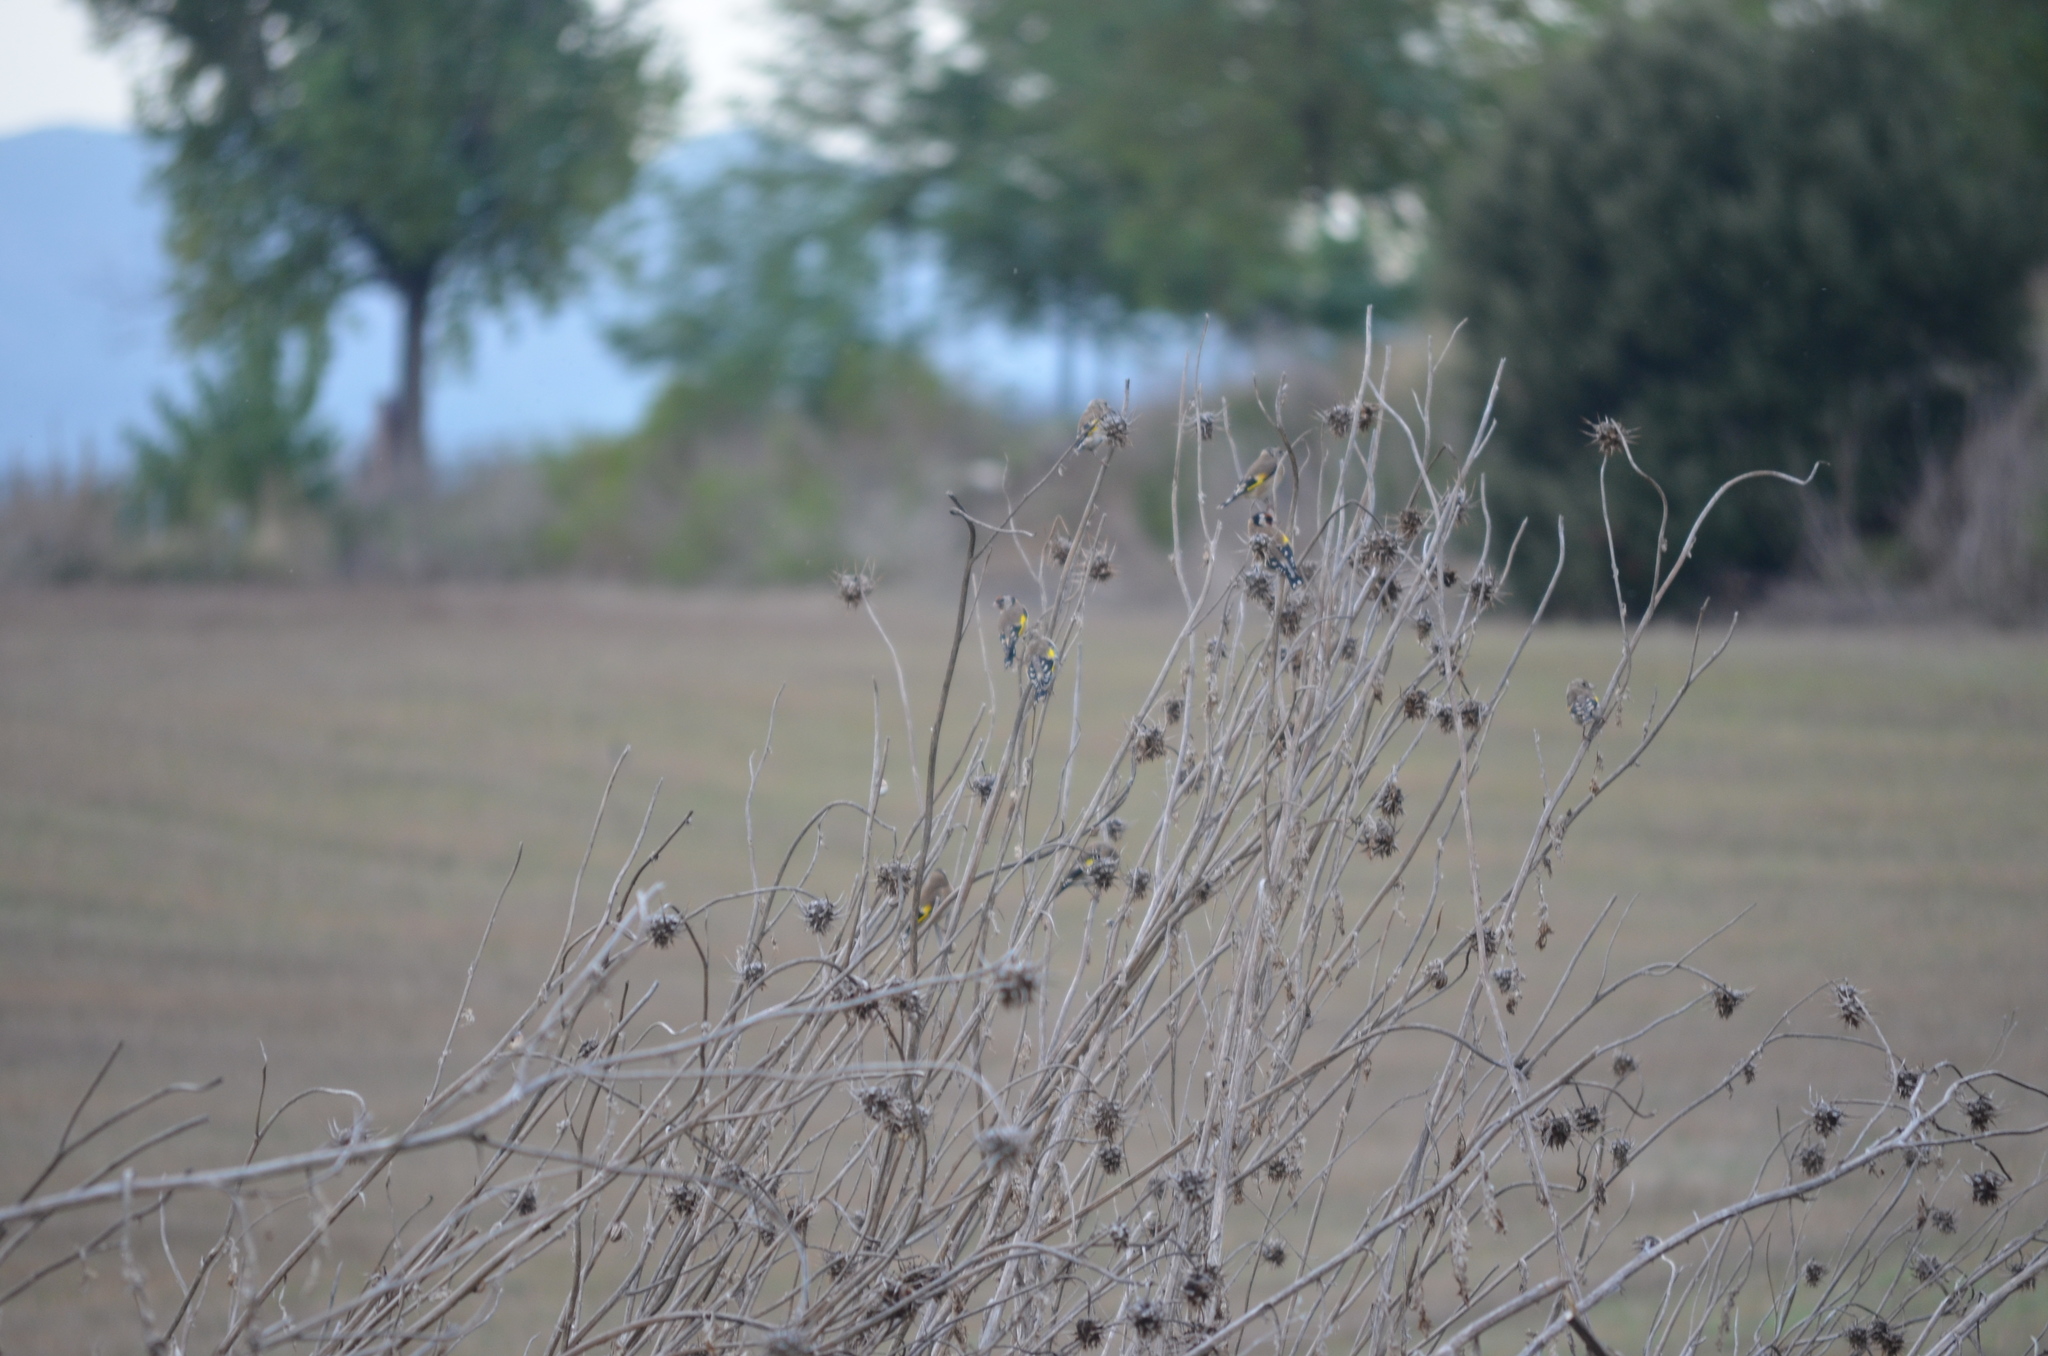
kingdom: Animalia
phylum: Chordata
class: Aves
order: Passeriformes
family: Fringillidae
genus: Carduelis
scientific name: Carduelis carduelis
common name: European goldfinch
